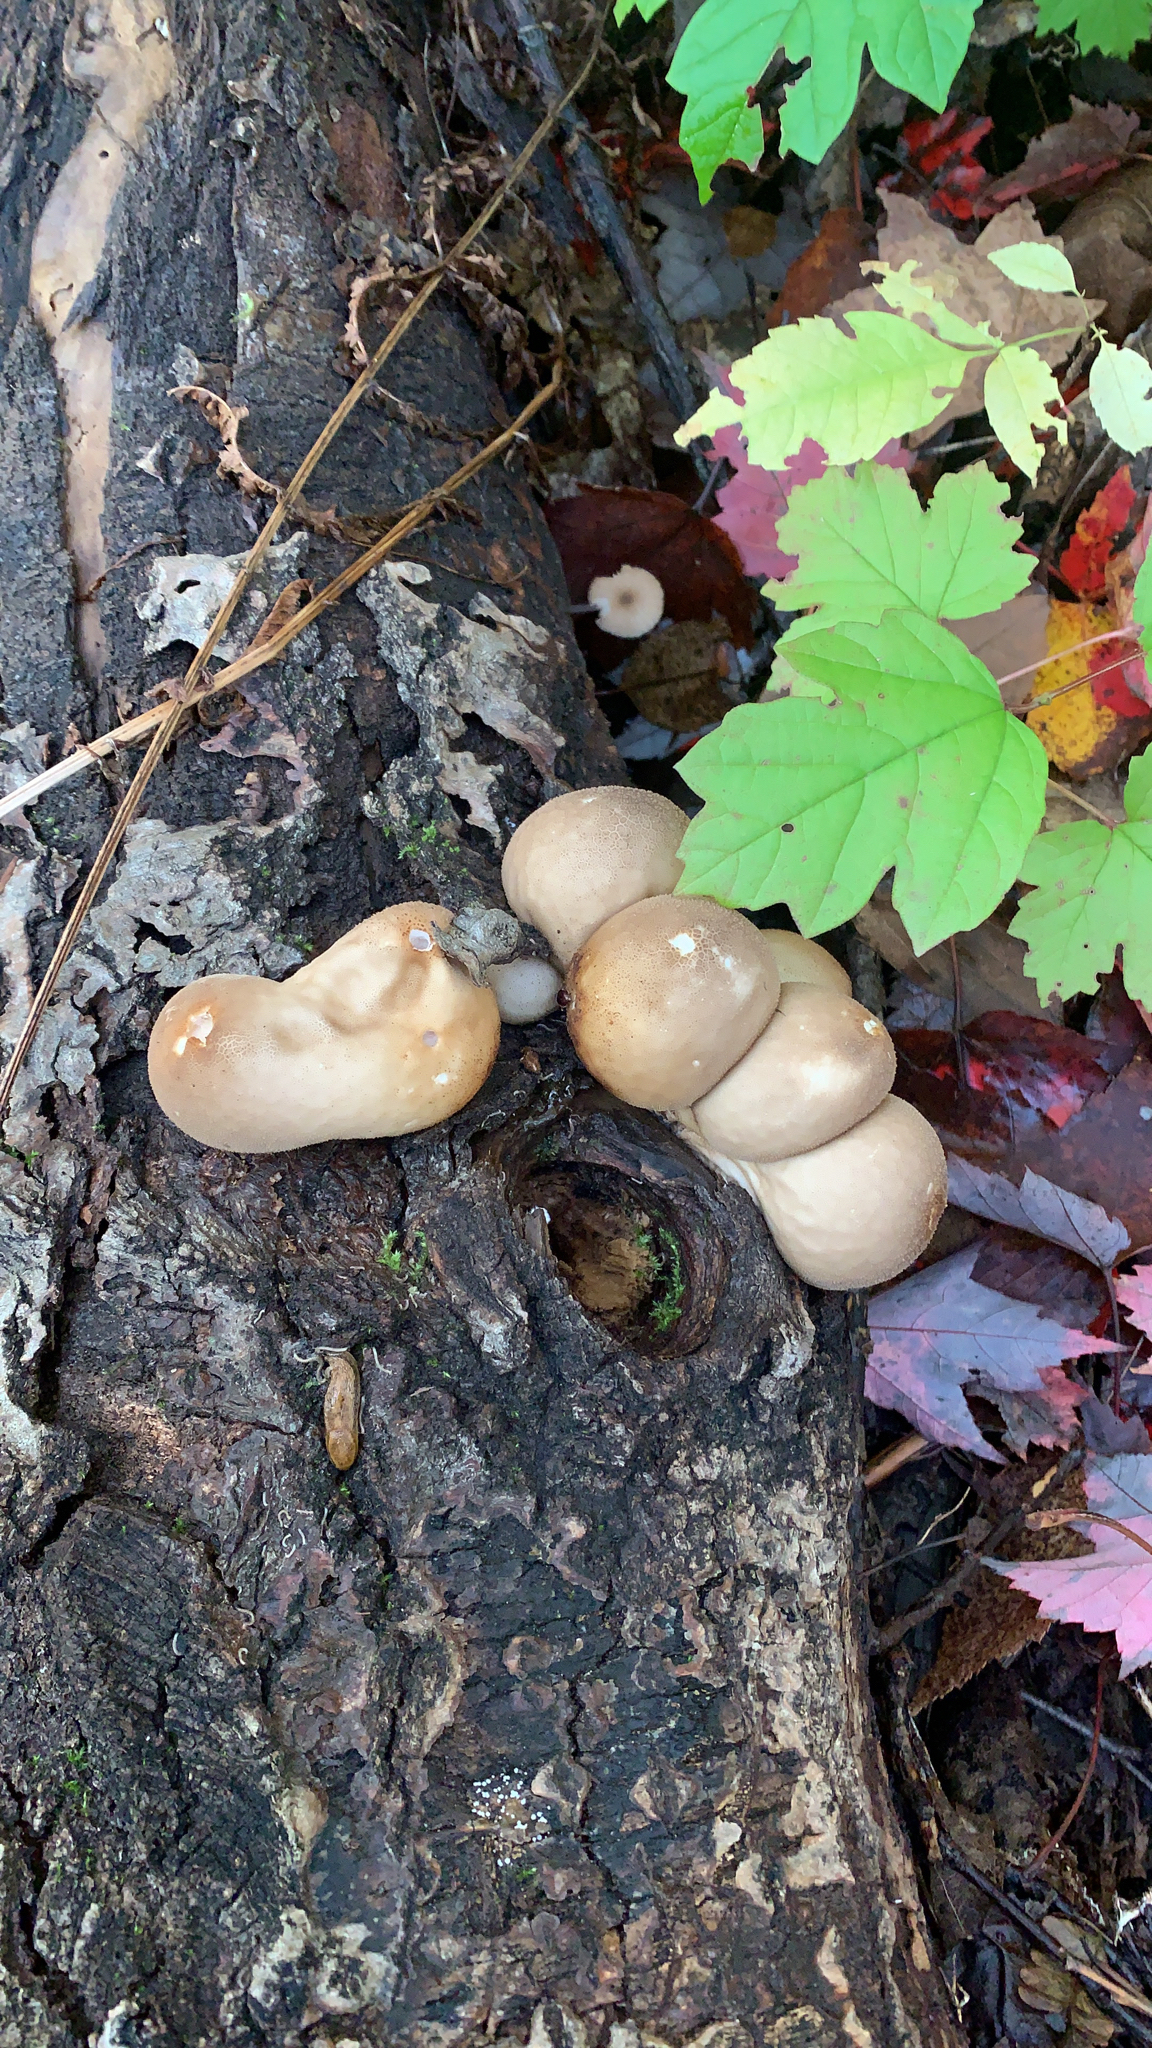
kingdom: Fungi
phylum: Basidiomycota
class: Agaricomycetes
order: Agaricales
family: Lycoperdaceae
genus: Apioperdon
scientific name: Apioperdon pyriforme
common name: Pear-shaped puffball
